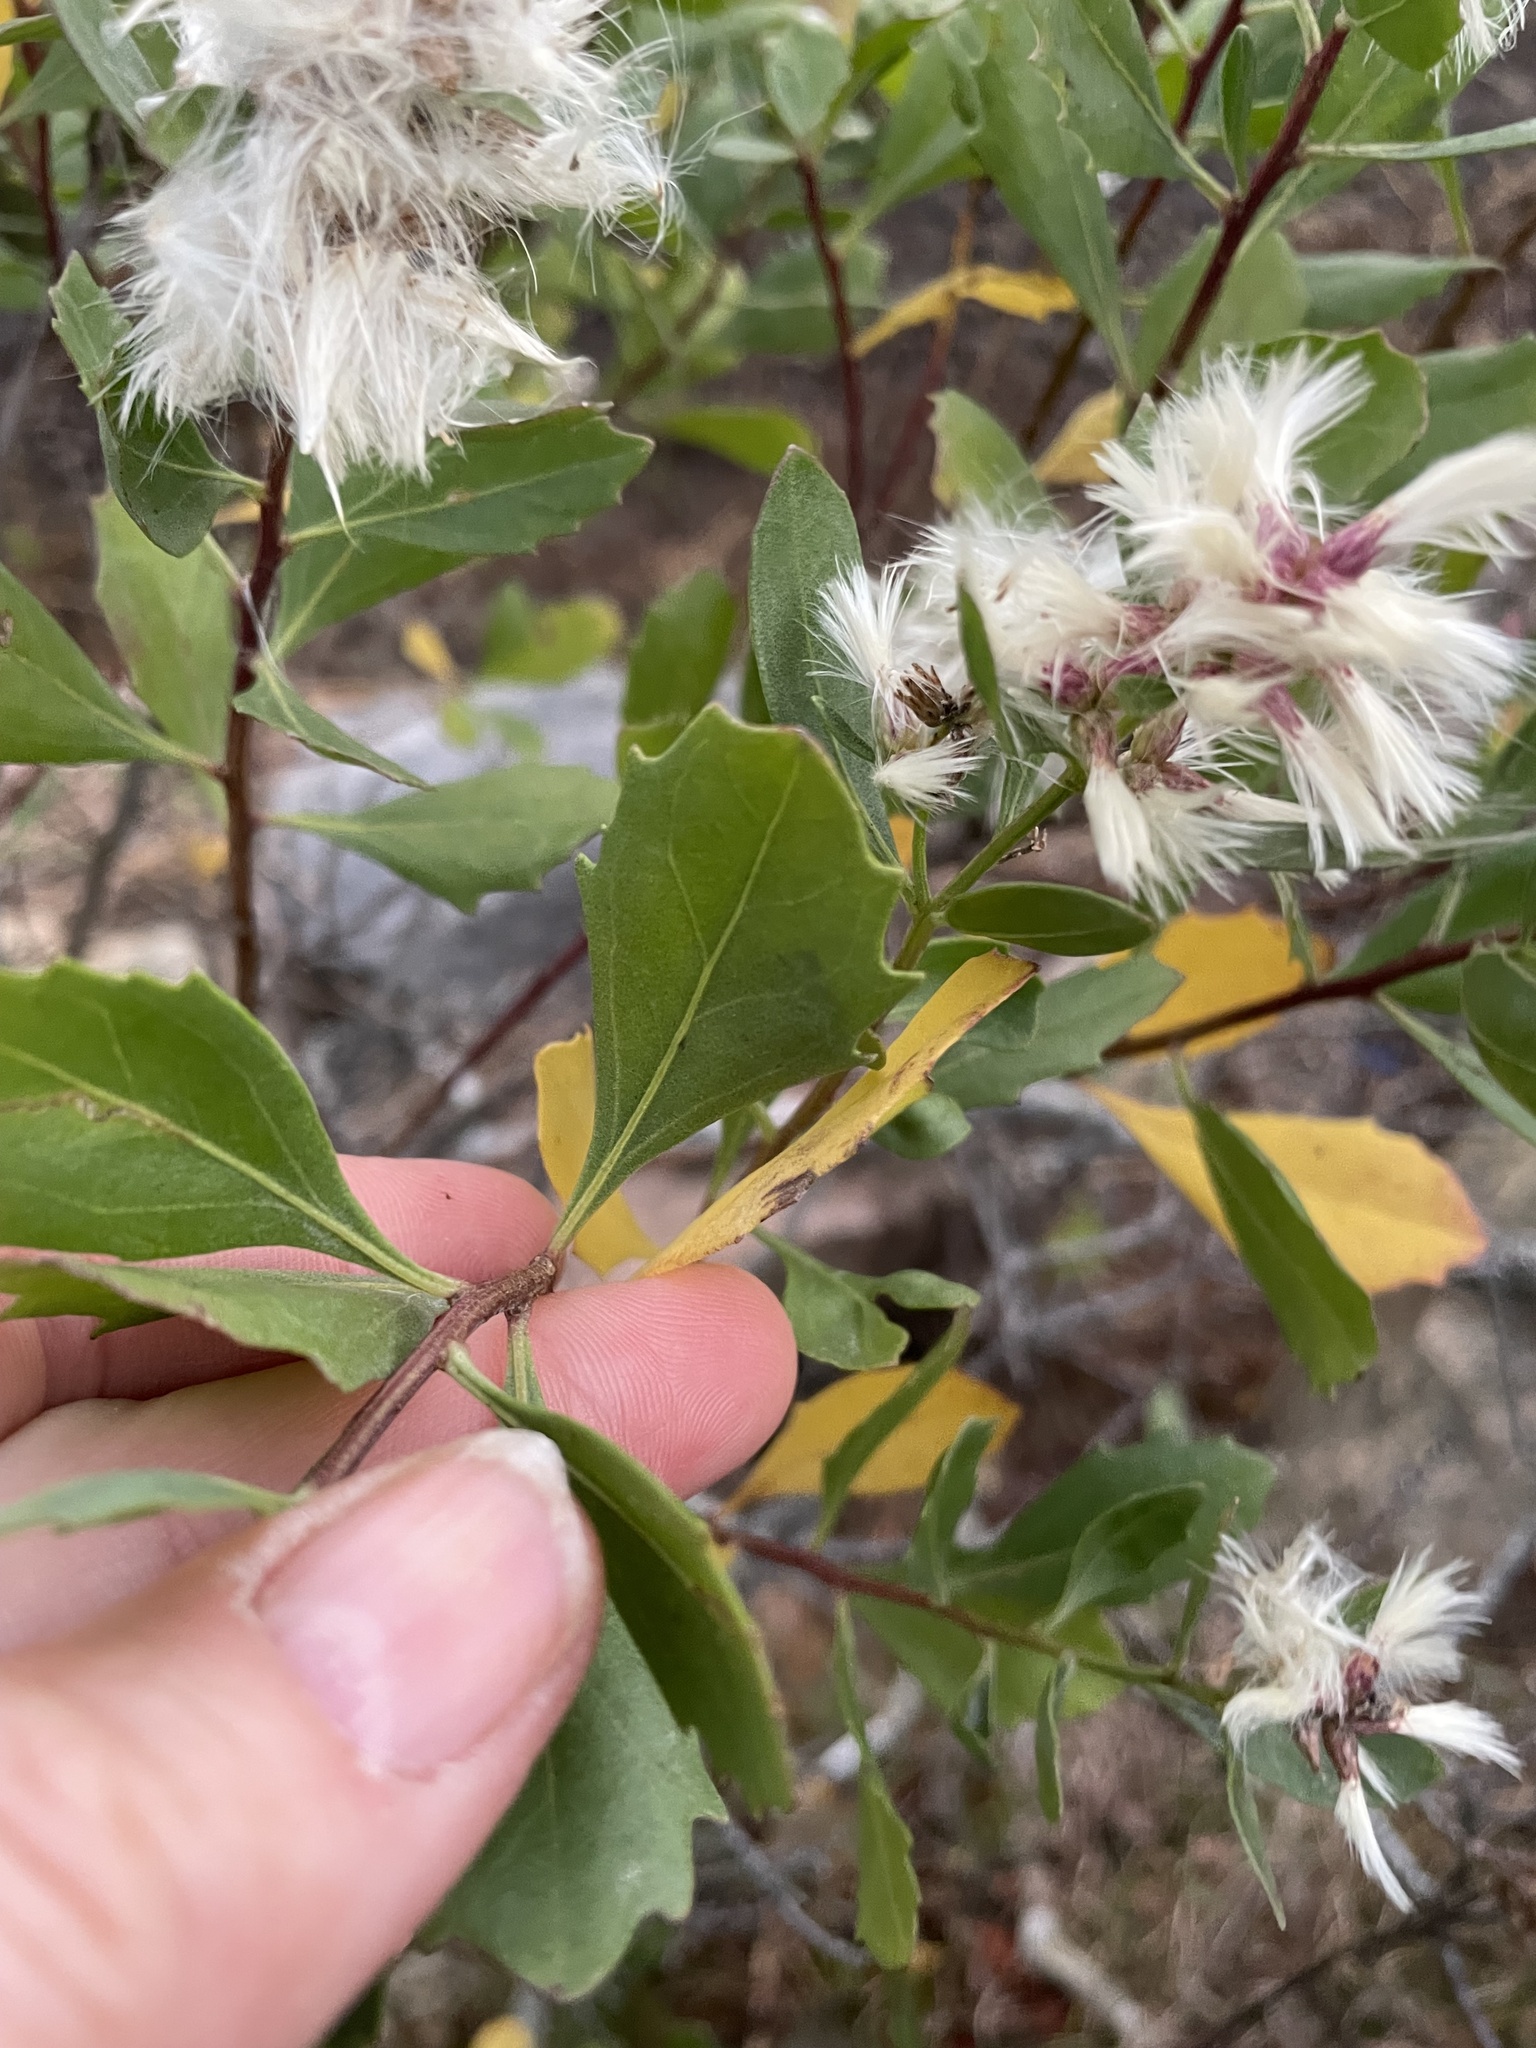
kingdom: Plantae
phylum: Tracheophyta
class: Magnoliopsida
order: Asterales
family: Asteraceae
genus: Baccharis
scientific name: Baccharis halimifolia
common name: Eastern baccharis
